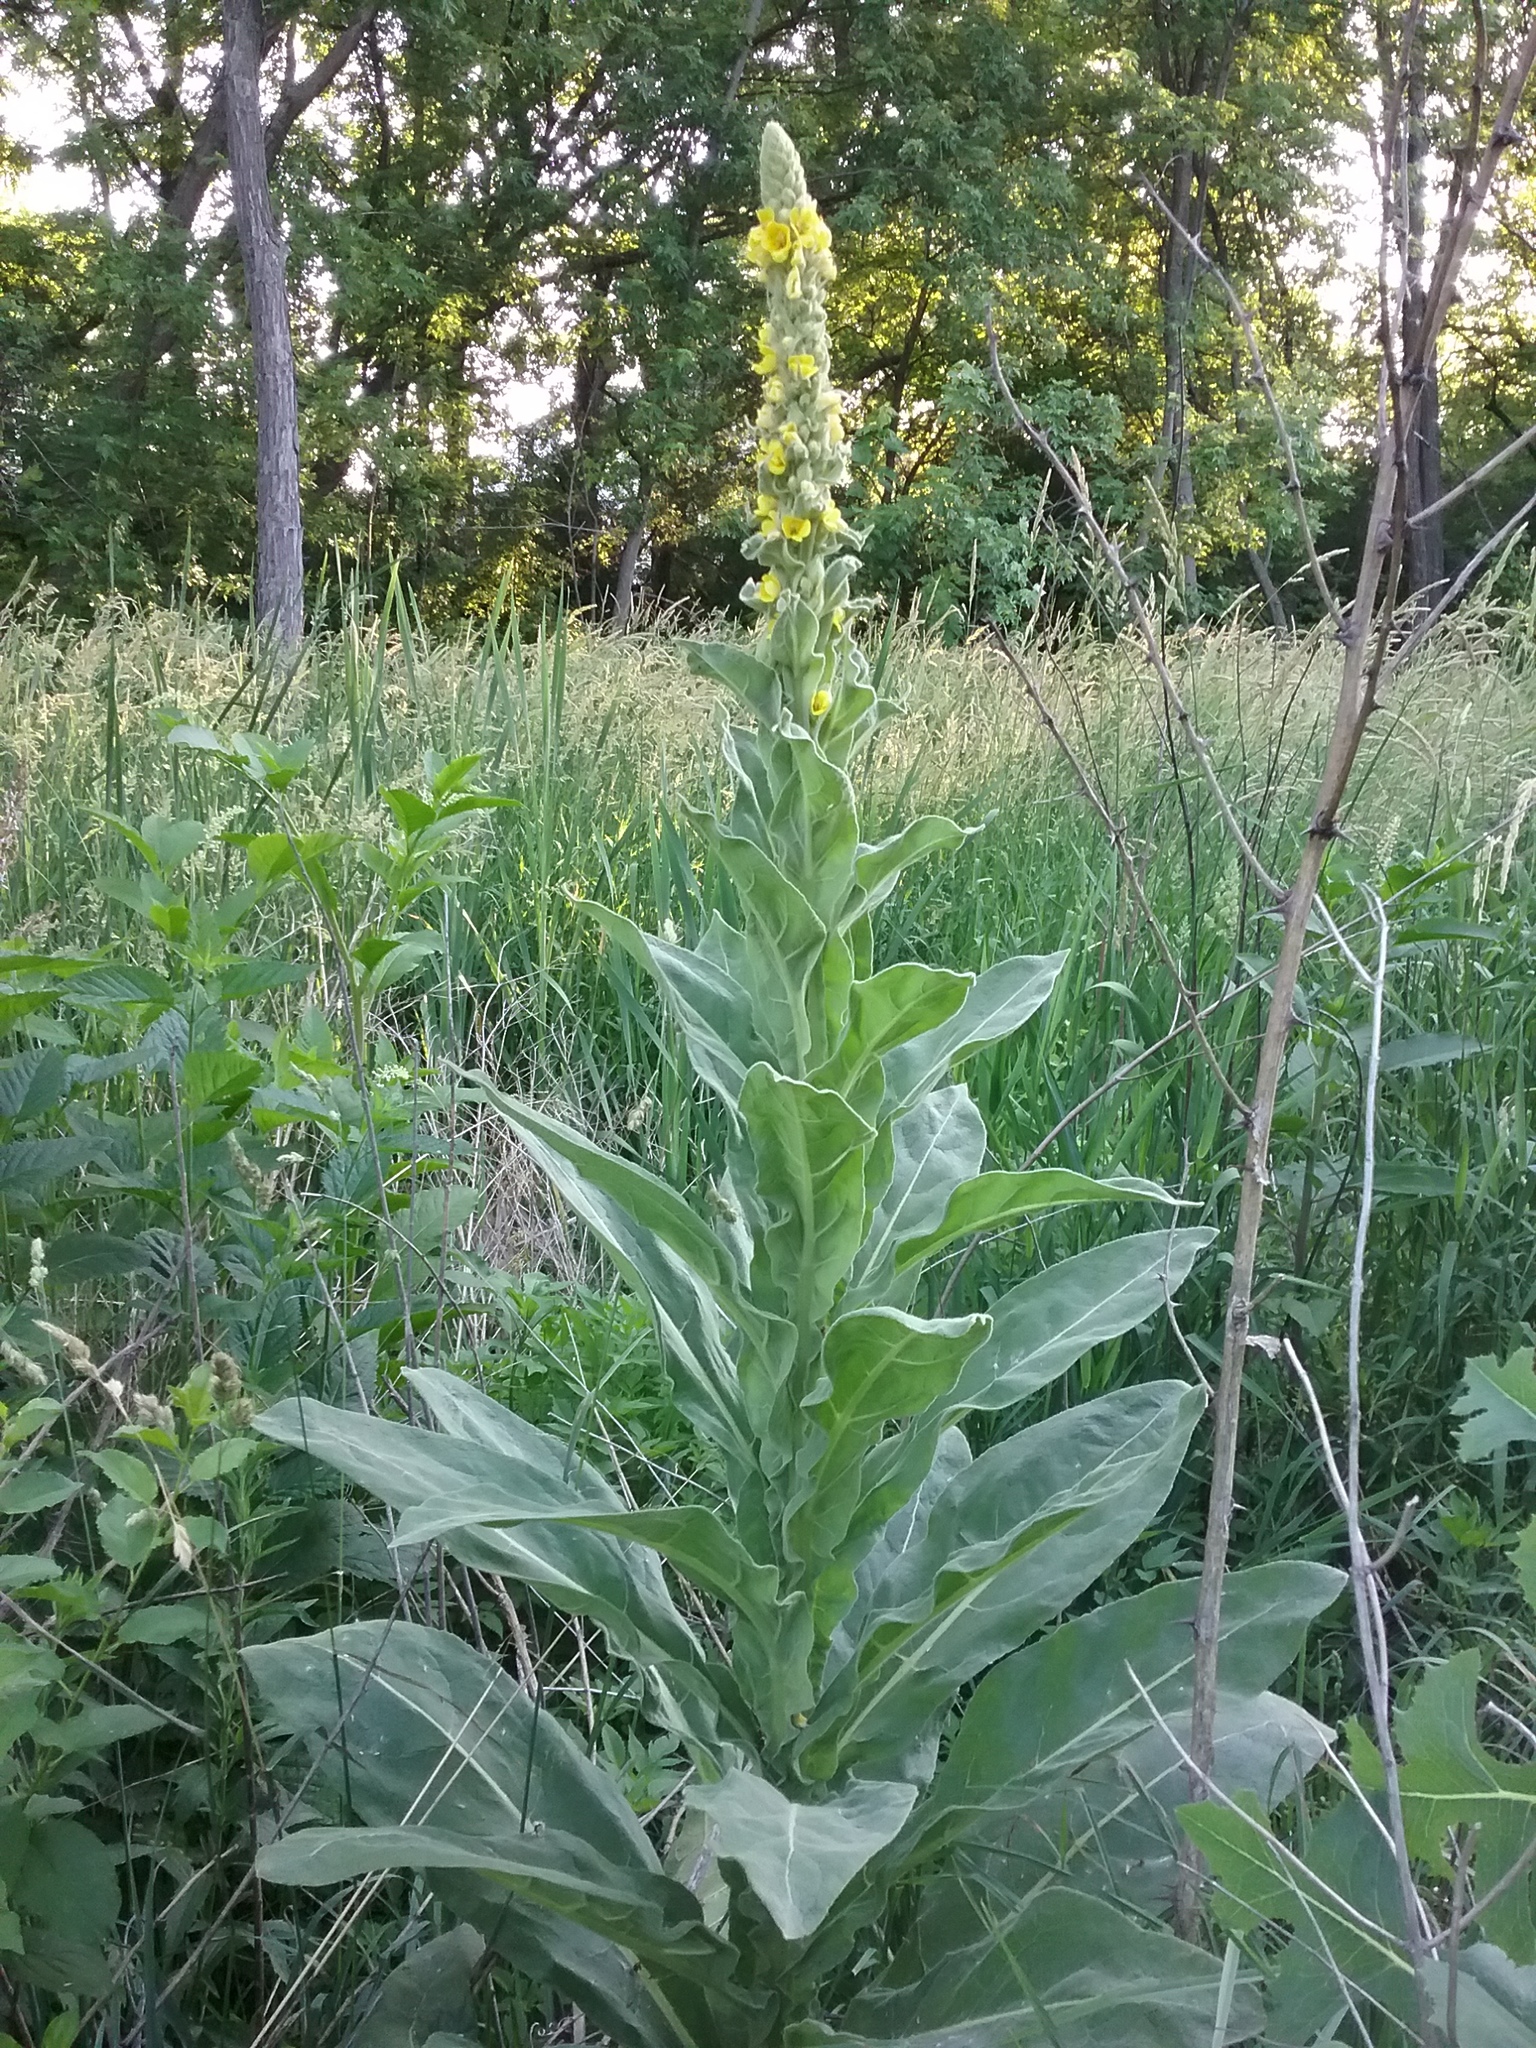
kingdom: Plantae
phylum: Tracheophyta
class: Magnoliopsida
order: Lamiales
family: Scrophulariaceae
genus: Verbascum
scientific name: Verbascum thapsus
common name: Common mullein
